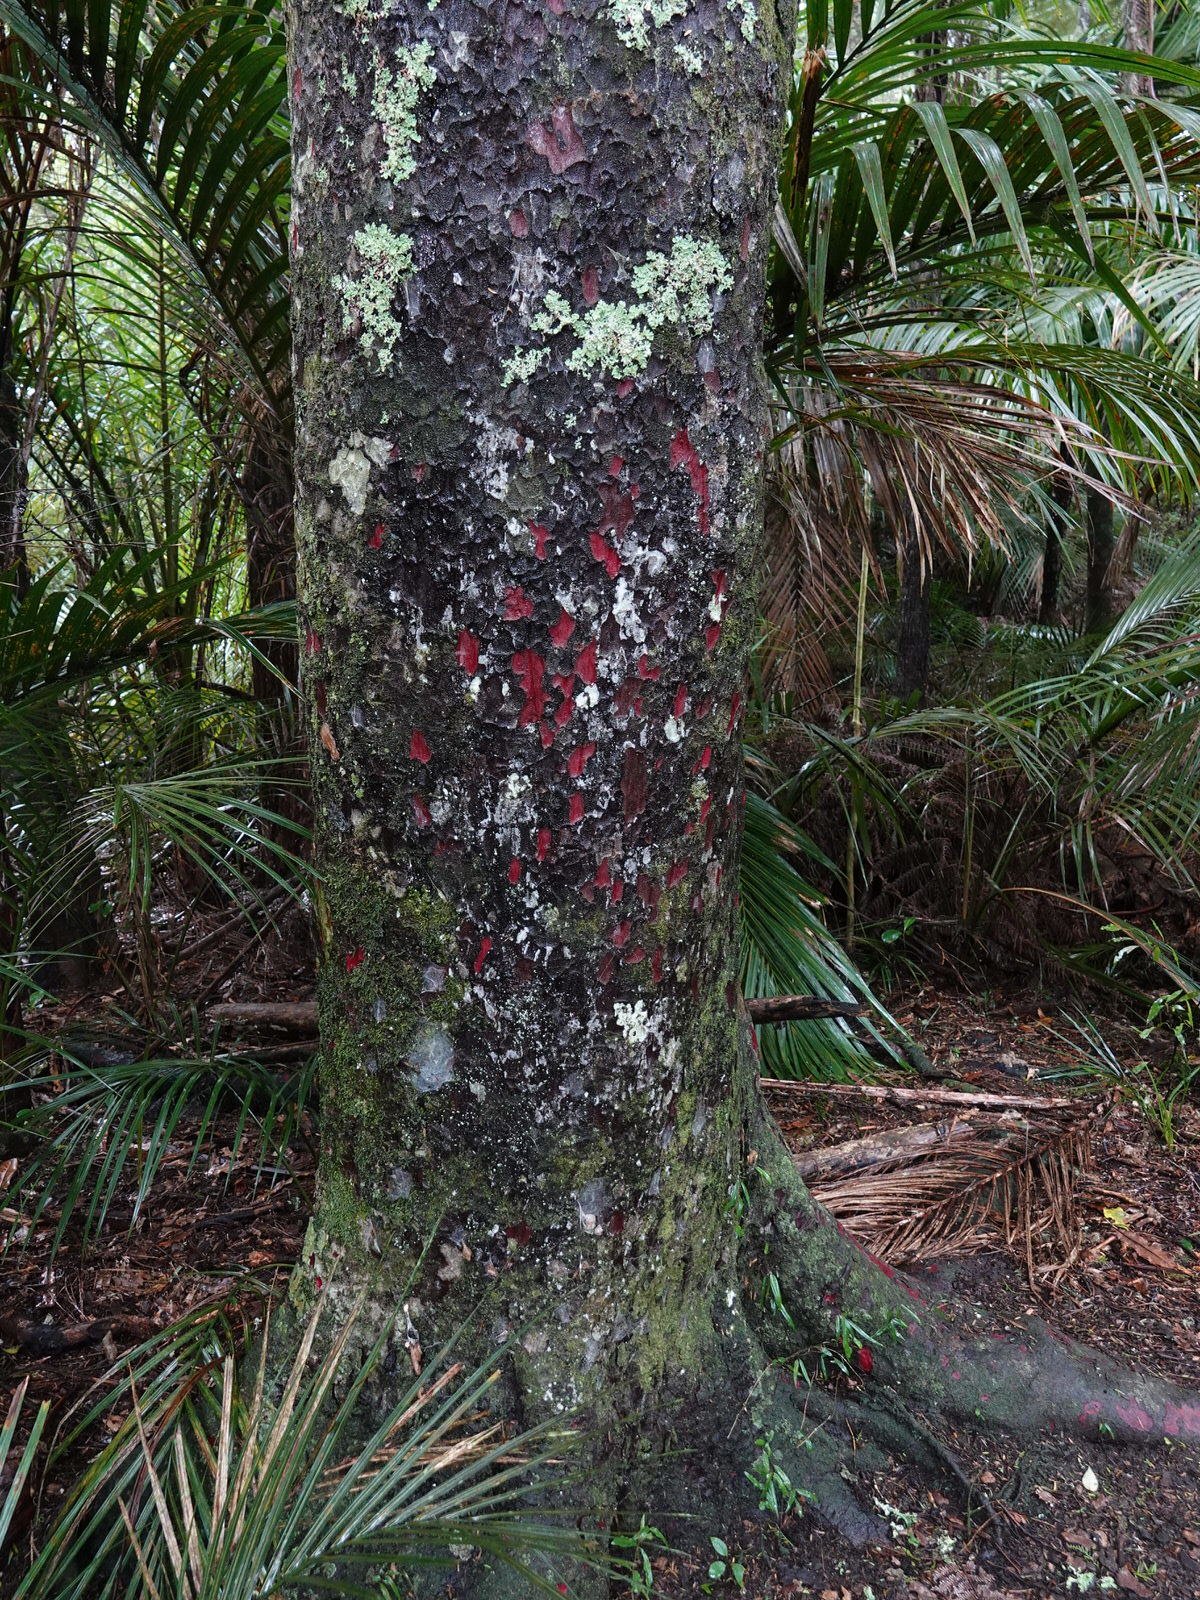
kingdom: Plantae
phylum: Tracheophyta
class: Pinopsida
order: Pinales
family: Podocarpaceae
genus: Prumnopitys
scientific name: Prumnopitys taxifolia
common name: Matai
